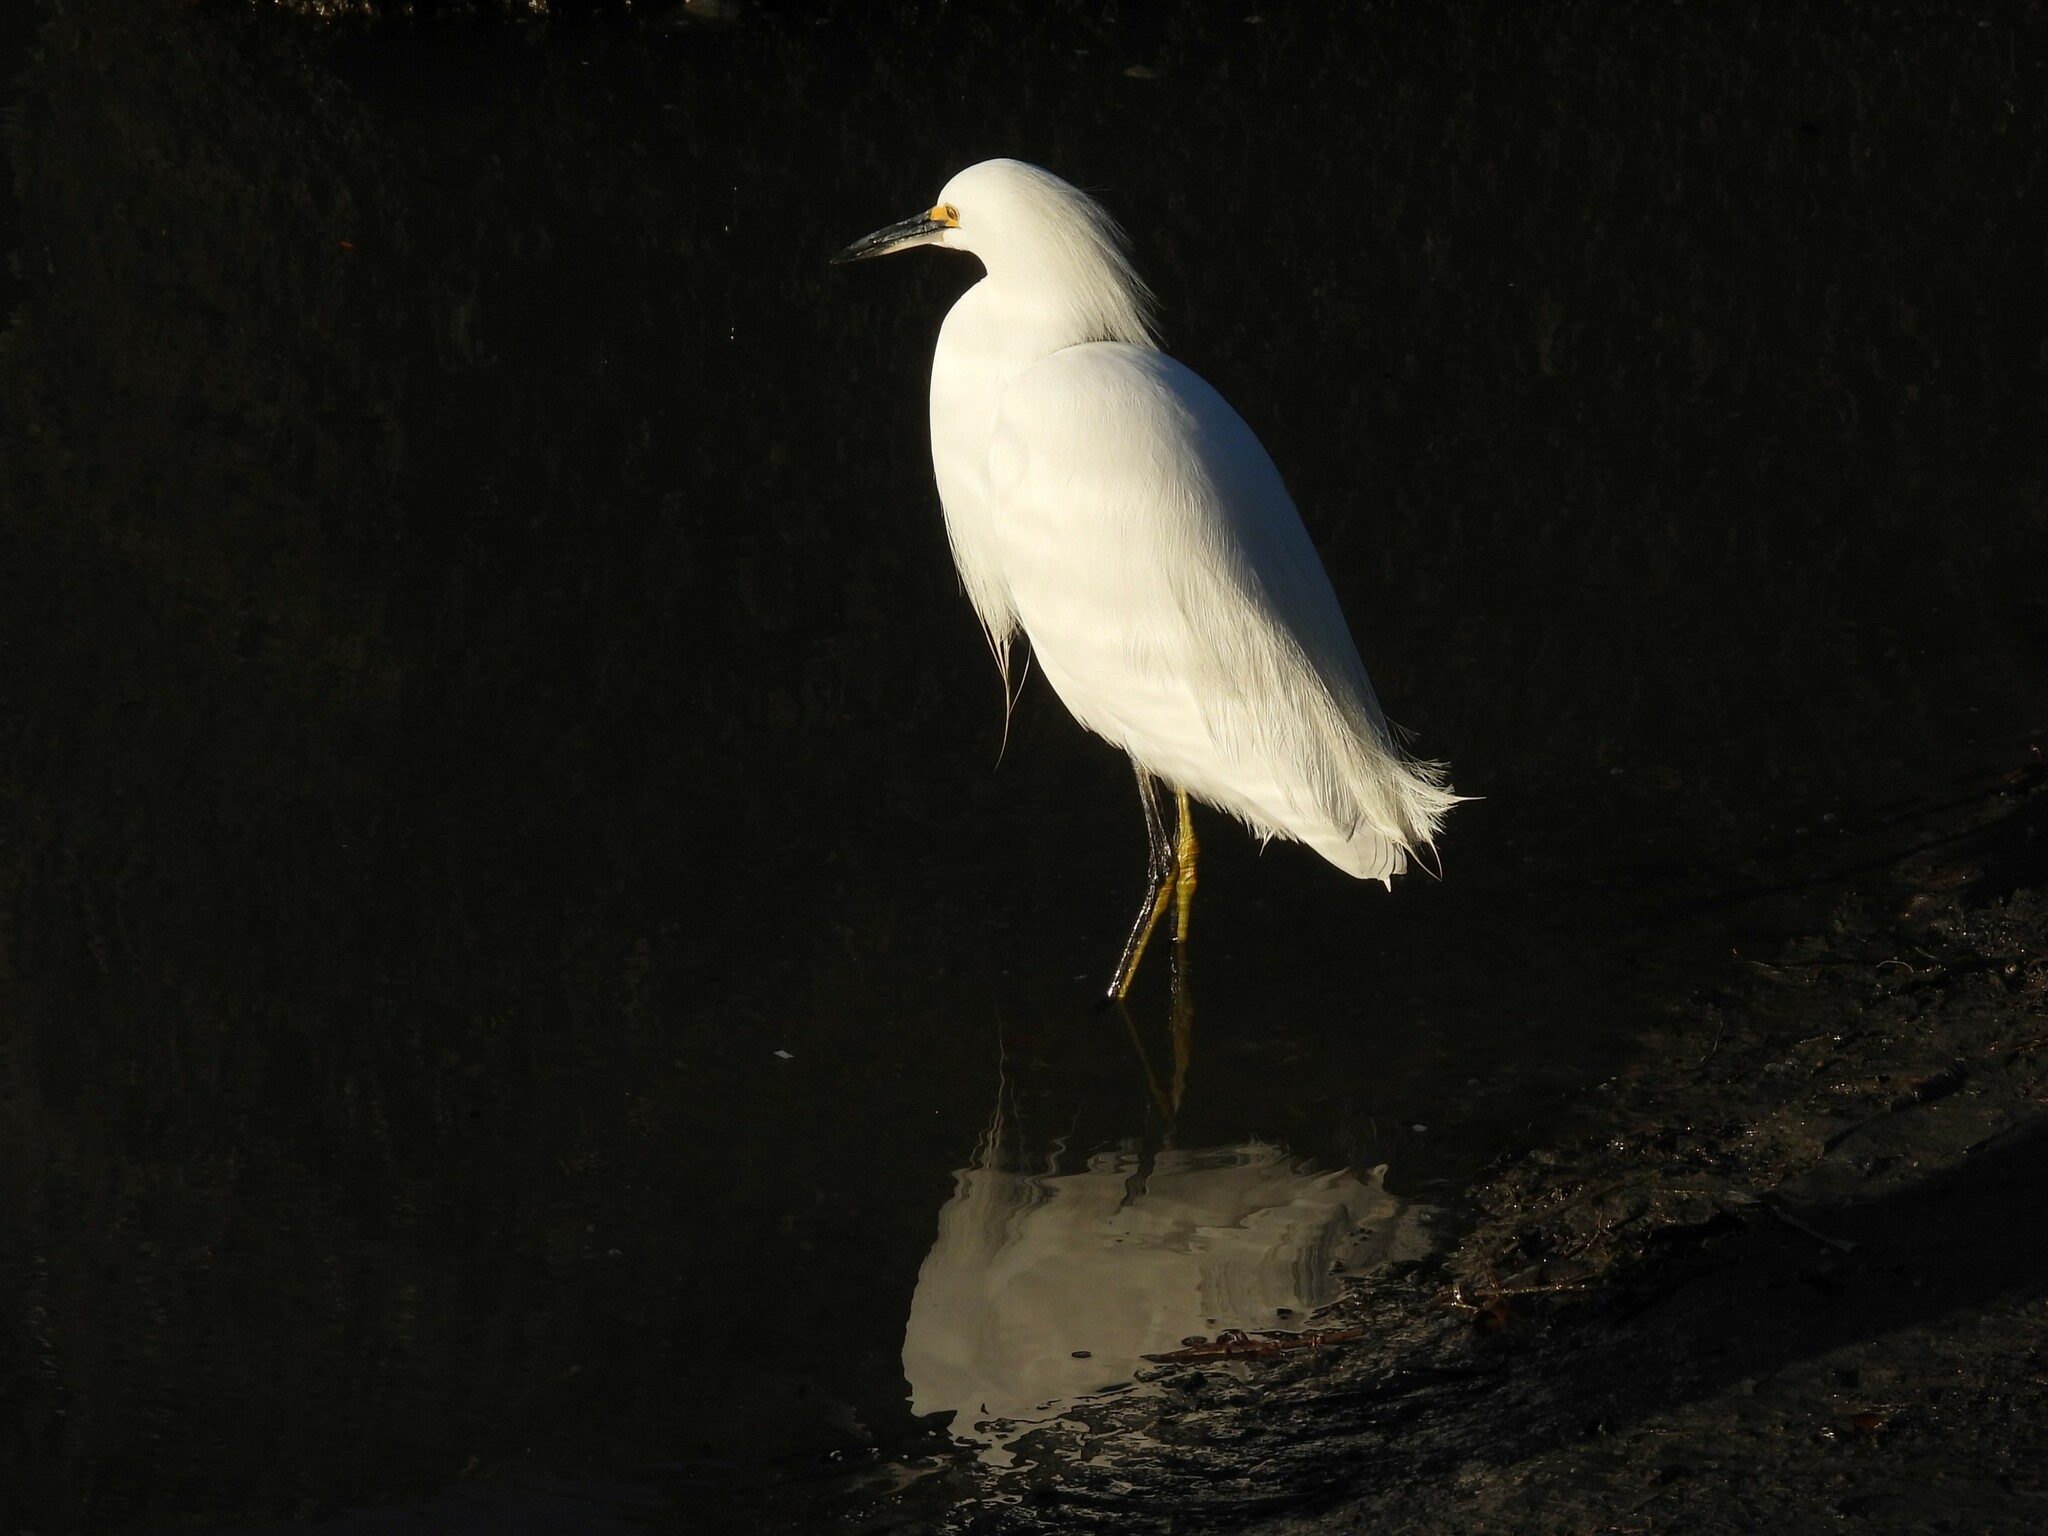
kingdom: Animalia
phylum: Chordata
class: Aves
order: Pelecaniformes
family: Ardeidae
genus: Egretta
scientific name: Egretta thula
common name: Snowy egret
